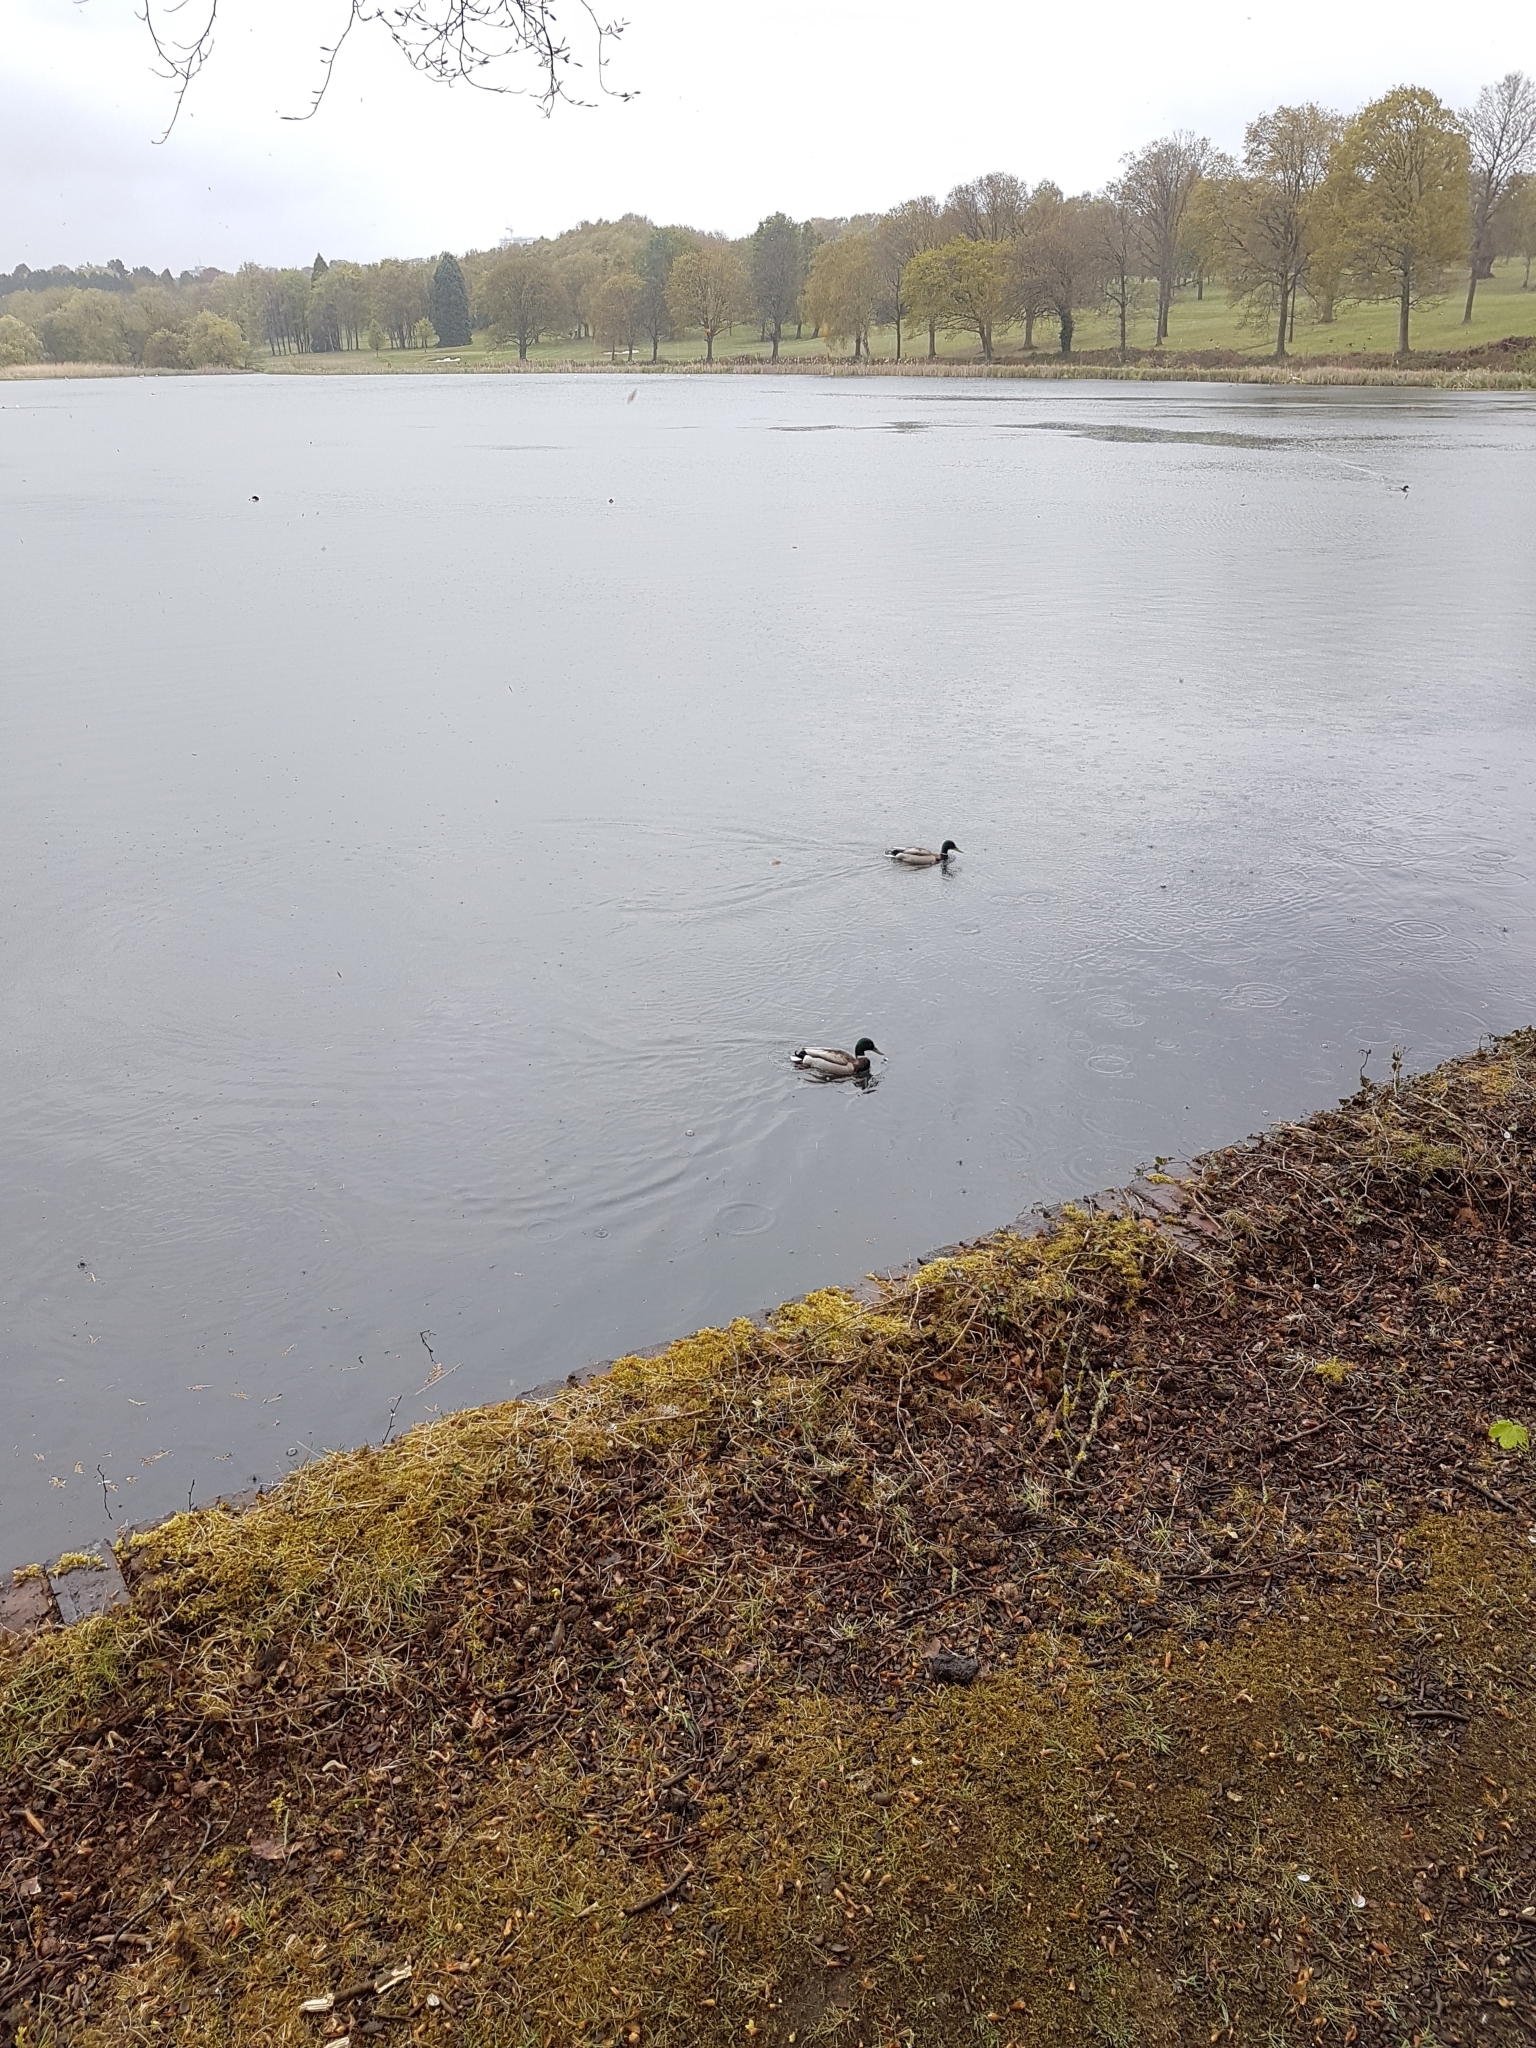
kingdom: Animalia
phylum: Chordata
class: Aves
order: Anseriformes
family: Anatidae
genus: Anas
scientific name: Anas platyrhynchos
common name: Mallard
